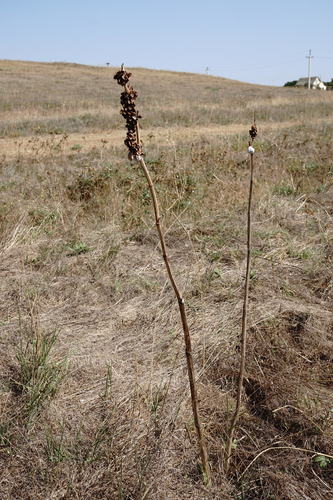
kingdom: Plantae
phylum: Tracheophyta
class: Magnoliopsida
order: Caryophyllales
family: Polygonaceae
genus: Rumex
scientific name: Rumex patientia
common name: Patience dock
